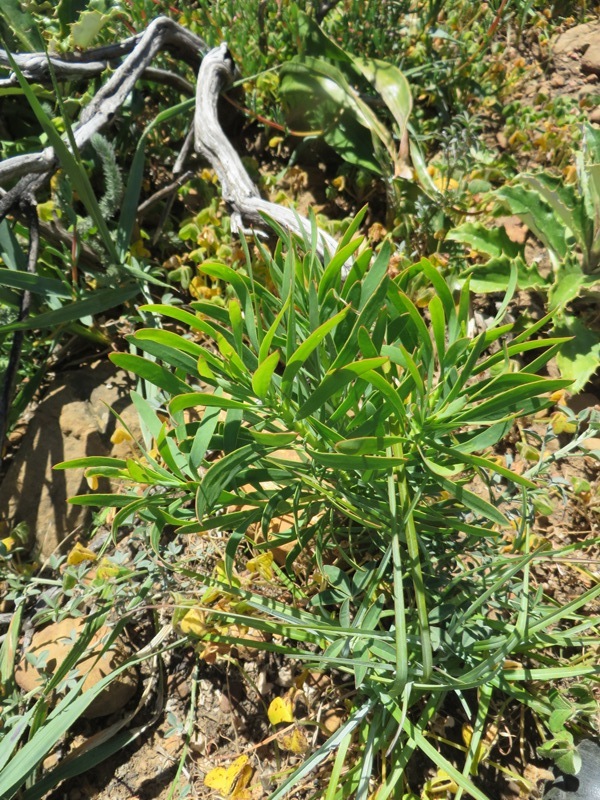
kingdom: Plantae
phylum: Tracheophyta
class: Magnoliopsida
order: Proteales
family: Proteaceae
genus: Protea
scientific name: Protea repens
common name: Sugarbush
